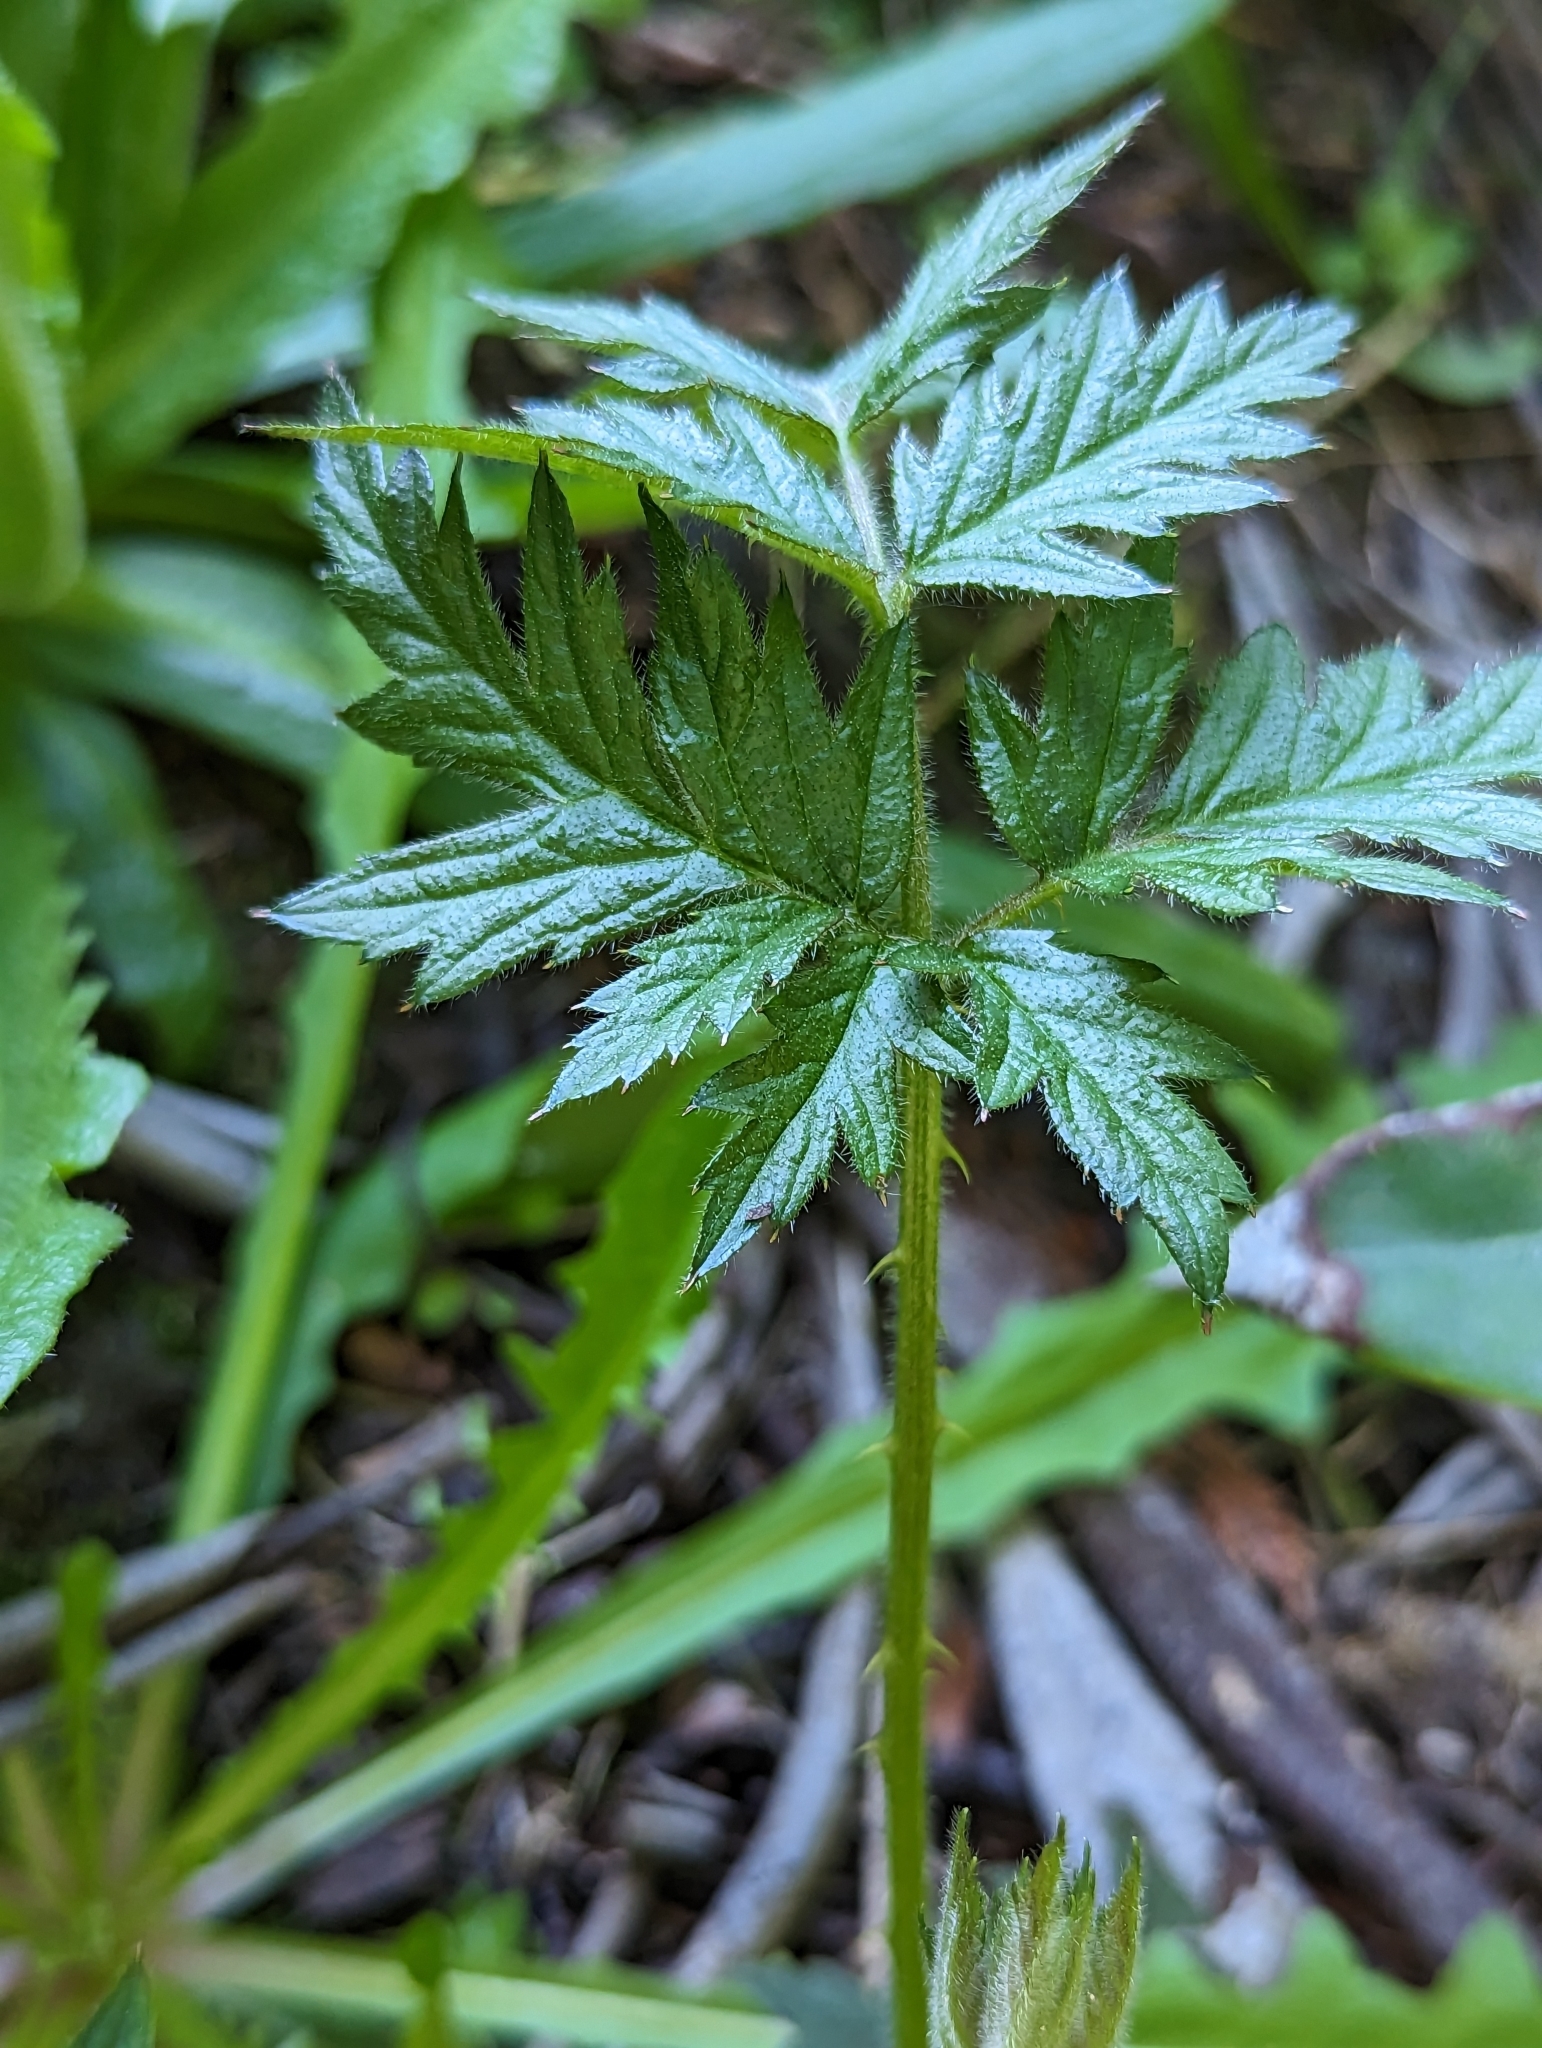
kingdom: Plantae
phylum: Tracheophyta
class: Magnoliopsida
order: Rosales
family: Rosaceae
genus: Rubus
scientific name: Rubus laciniatus
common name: Evergreen blackberry
